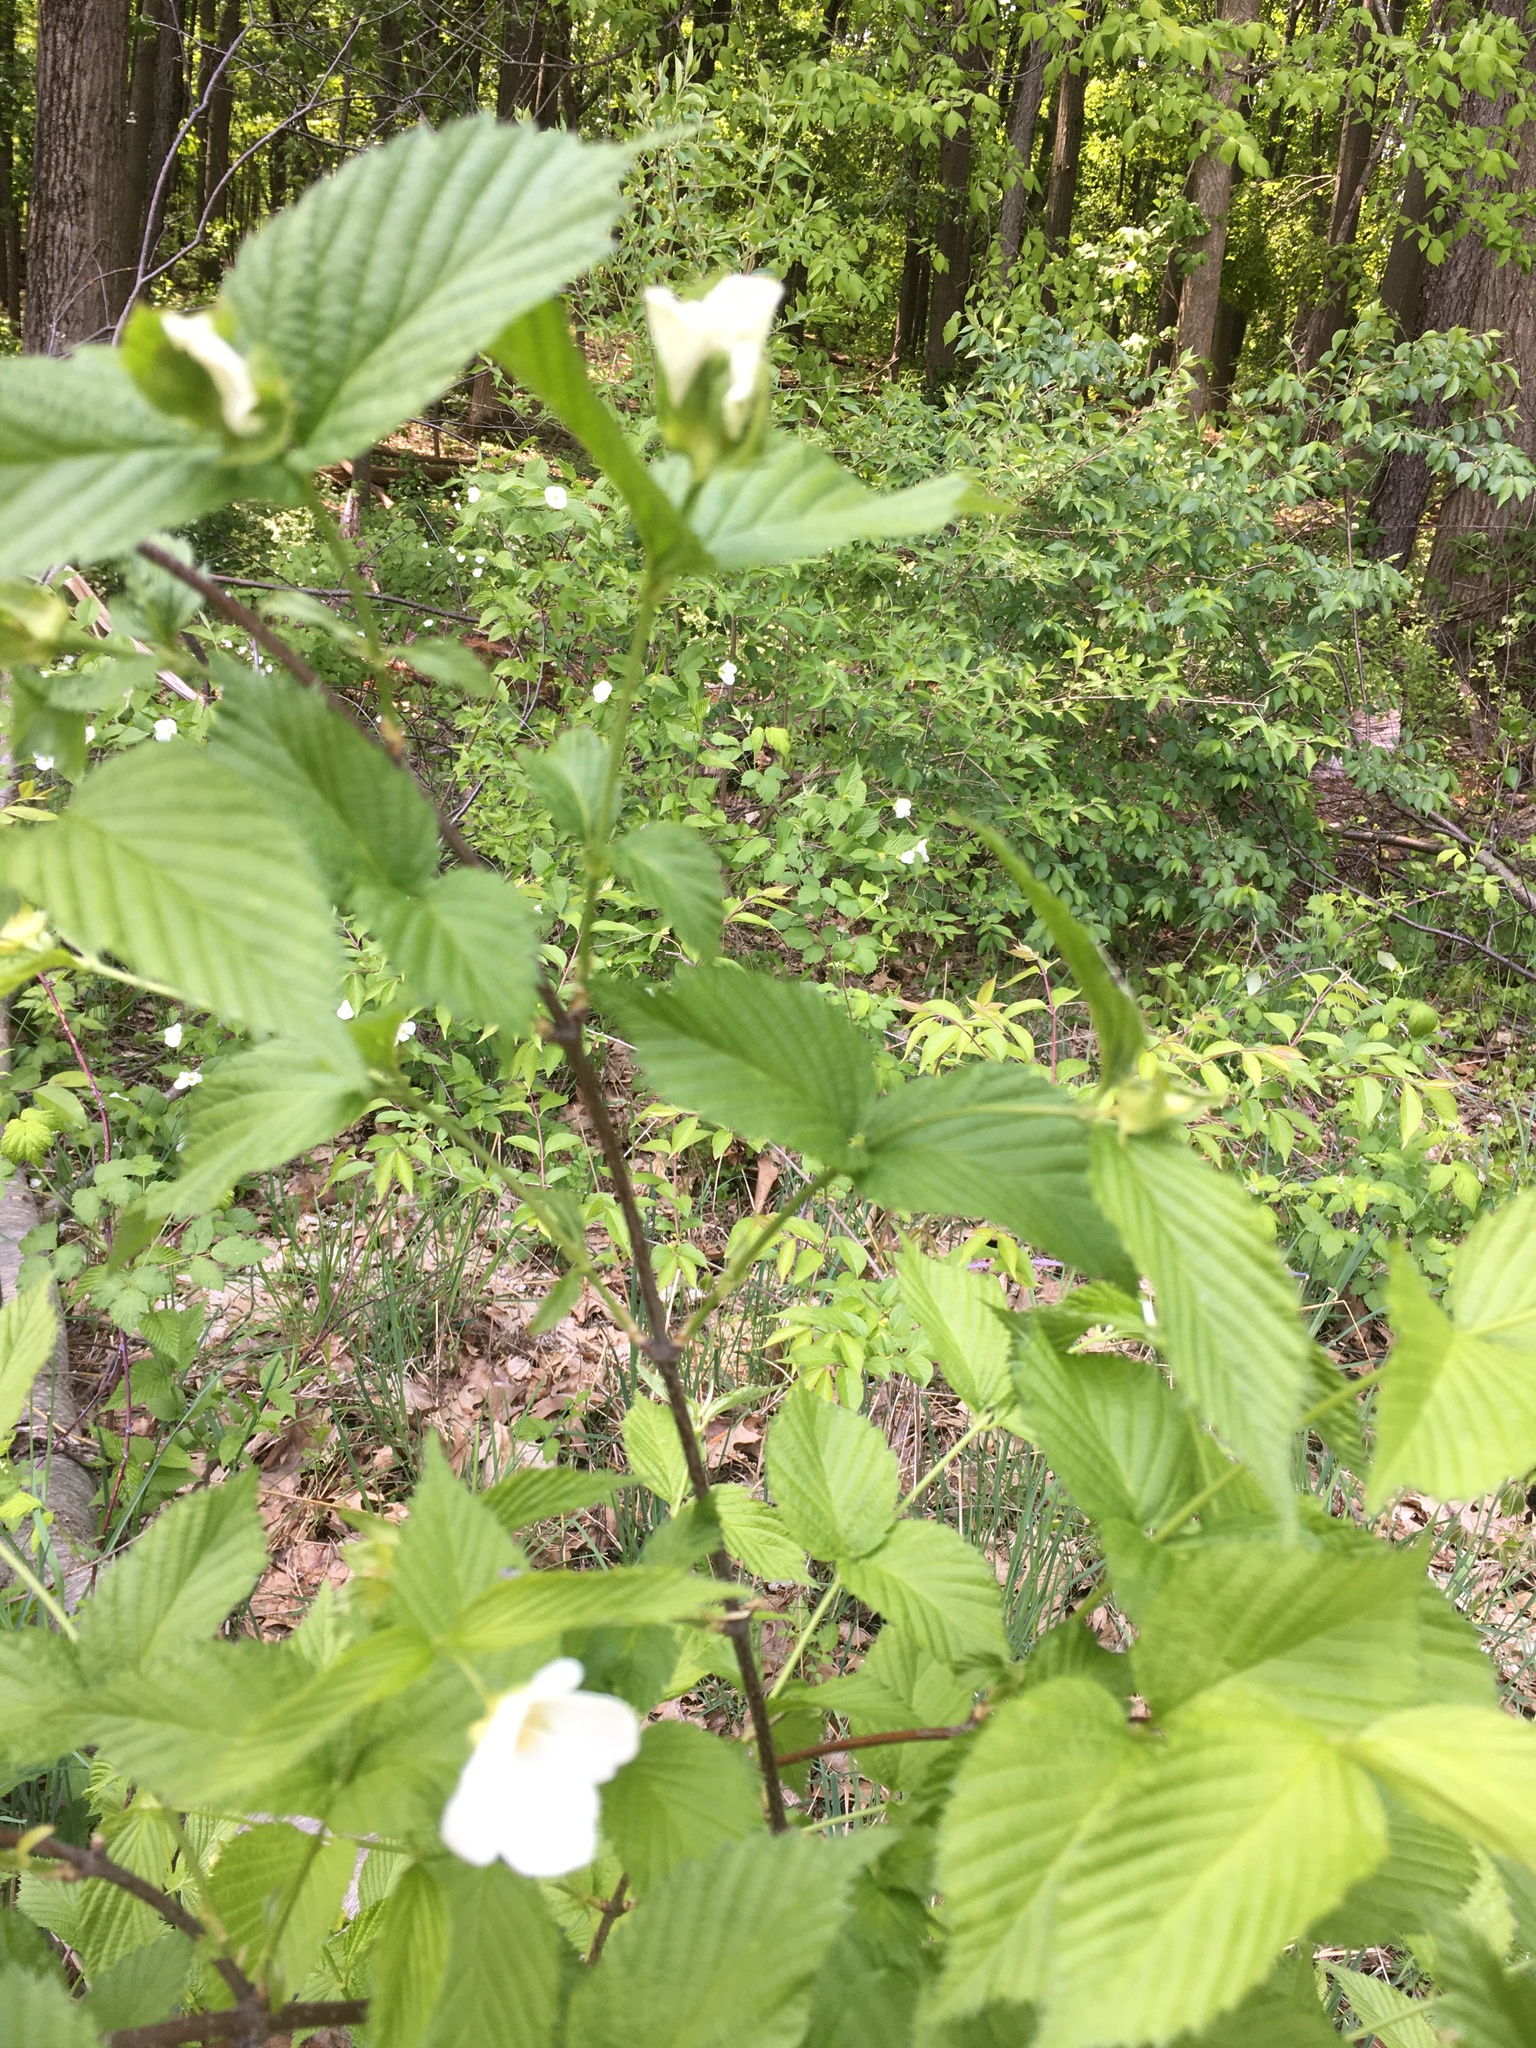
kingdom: Plantae
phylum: Tracheophyta
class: Magnoliopsida
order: Rosales
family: Rosaceae
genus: Rhodotypos
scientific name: Rhodotypos scandens
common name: Jetbead
